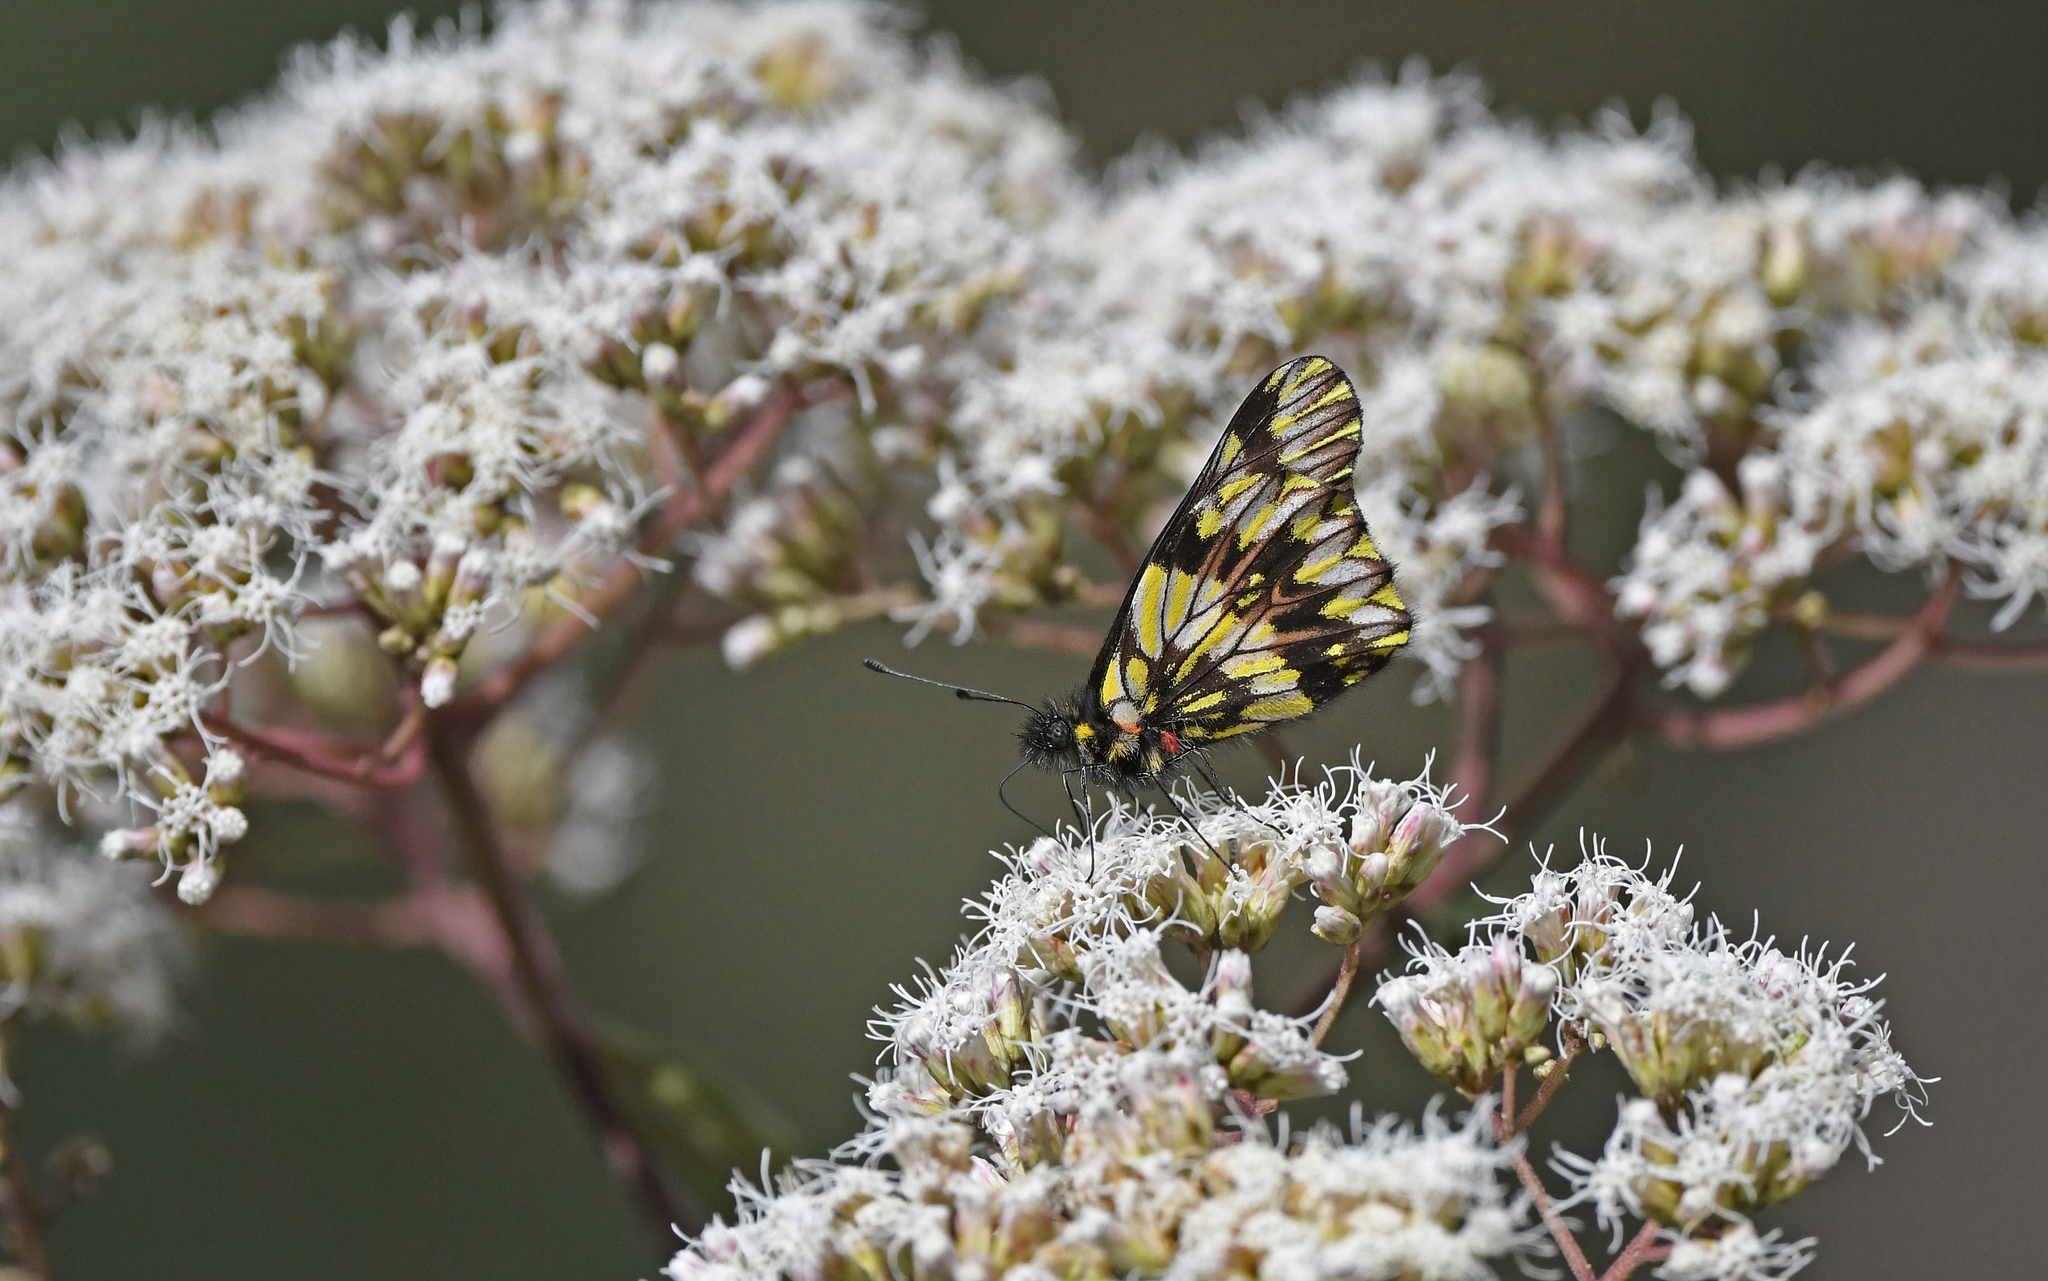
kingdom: Animalia
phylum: Arthropoda
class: Insecta
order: Lepidoptera
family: Pieridae
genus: Catasticta
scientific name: Catasticta modesta
